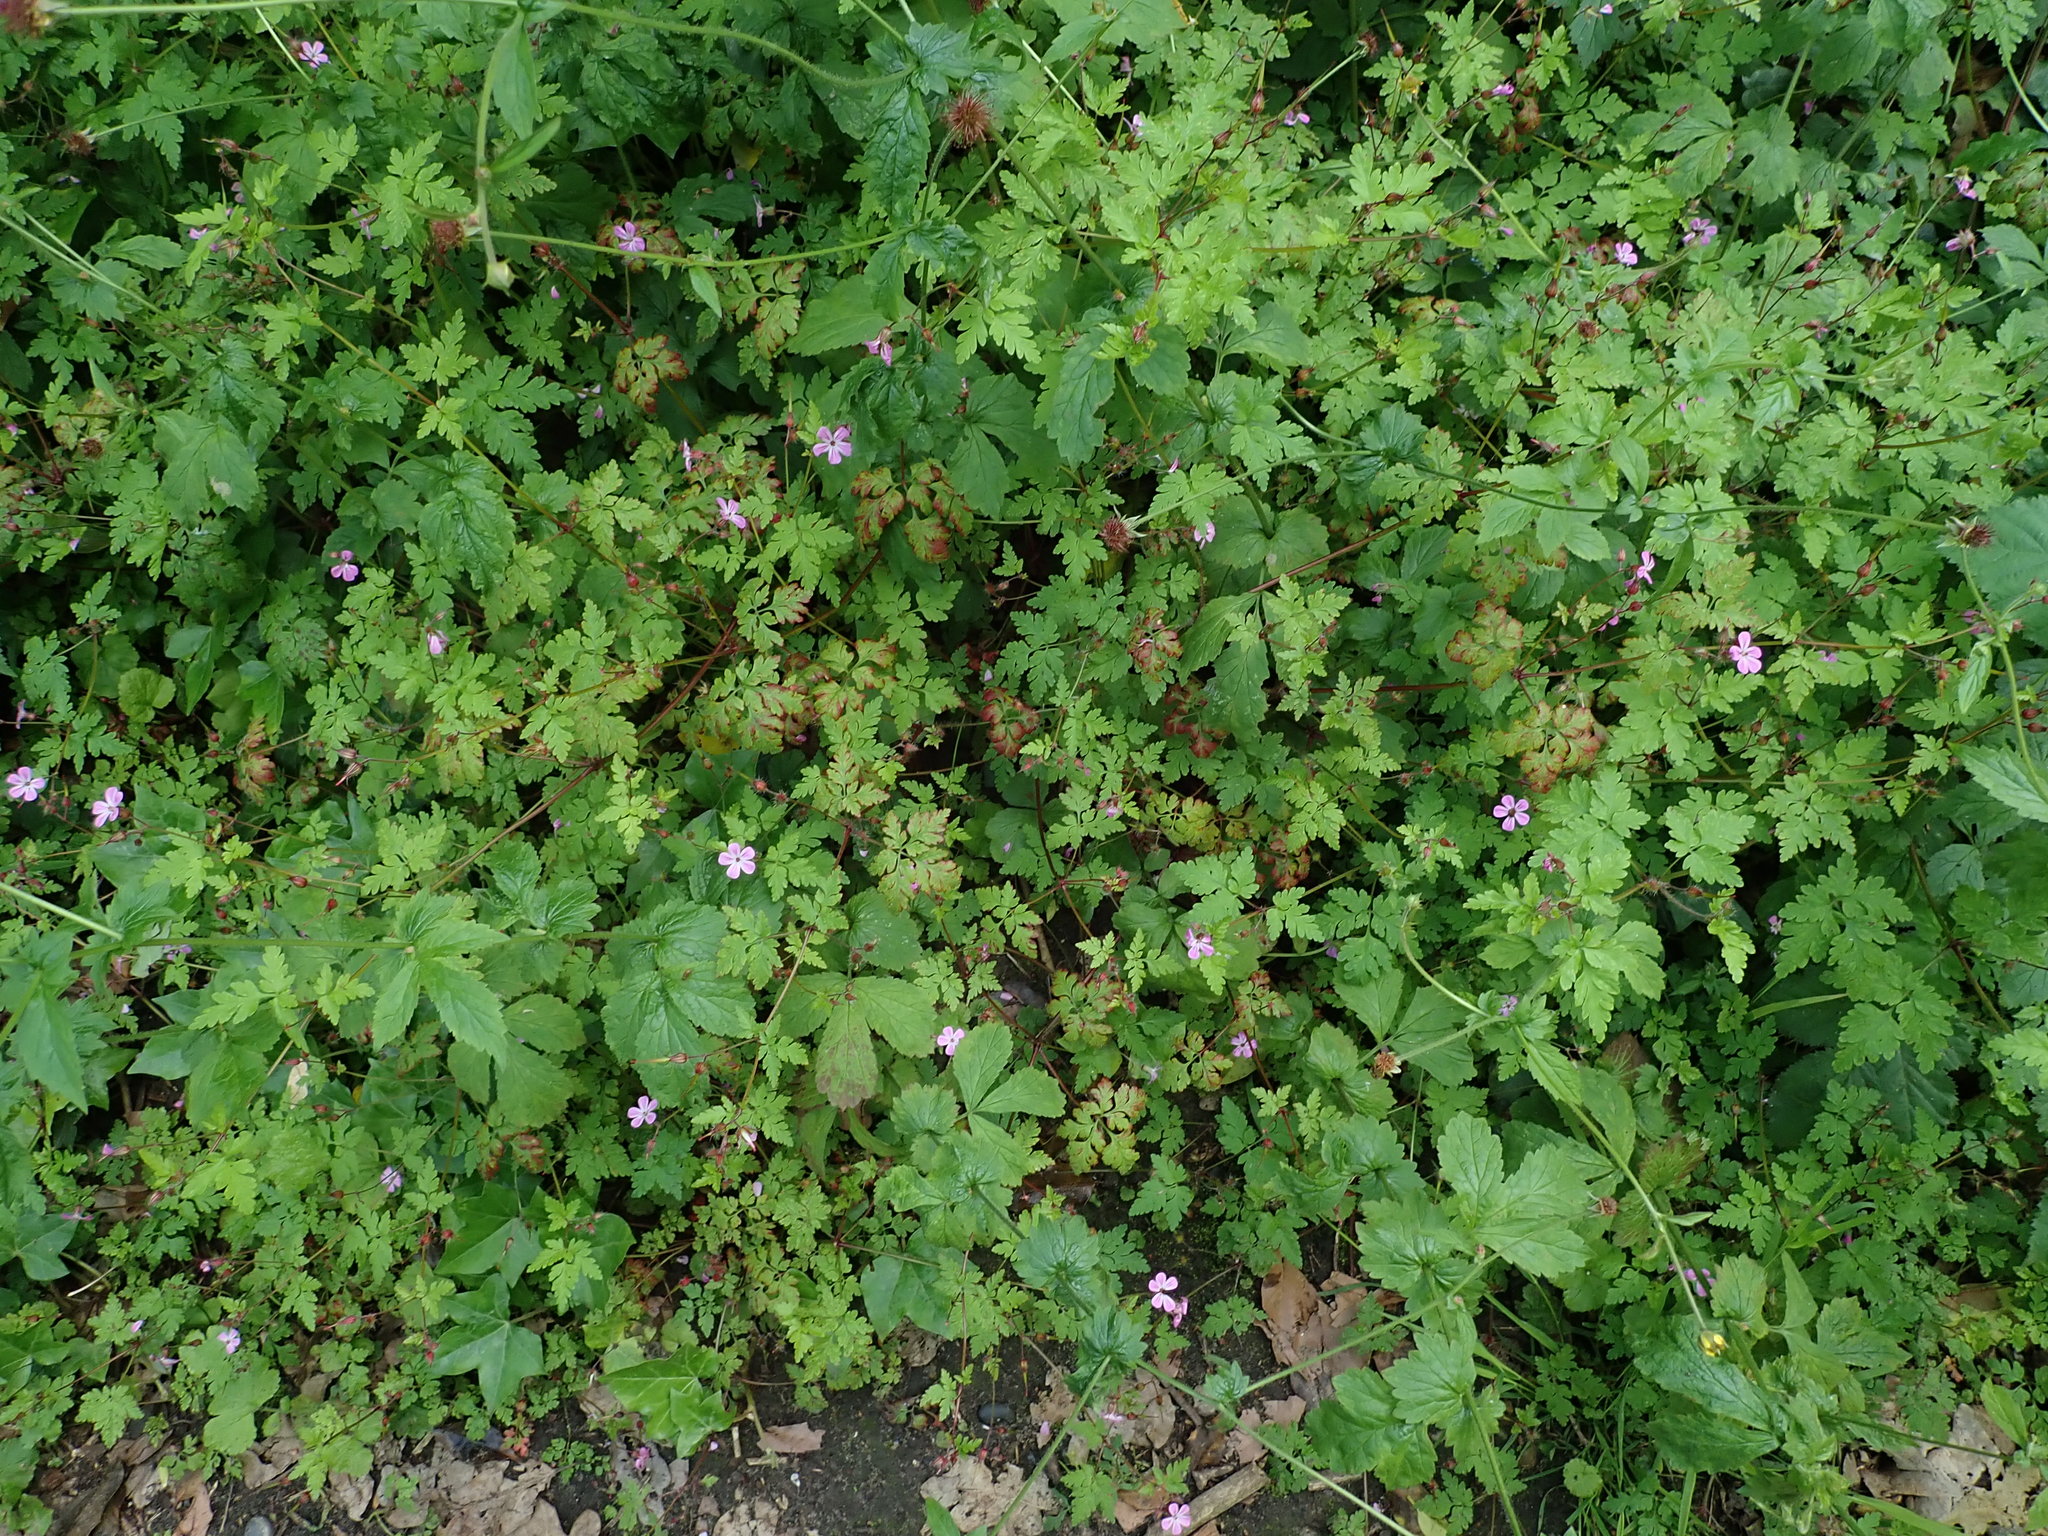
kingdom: Plantae
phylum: Tracheophyta
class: Magnoliopsida
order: Geraniales
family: Geraniaceae
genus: Geranium
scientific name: Geranium robertianum
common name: Herb-robert
